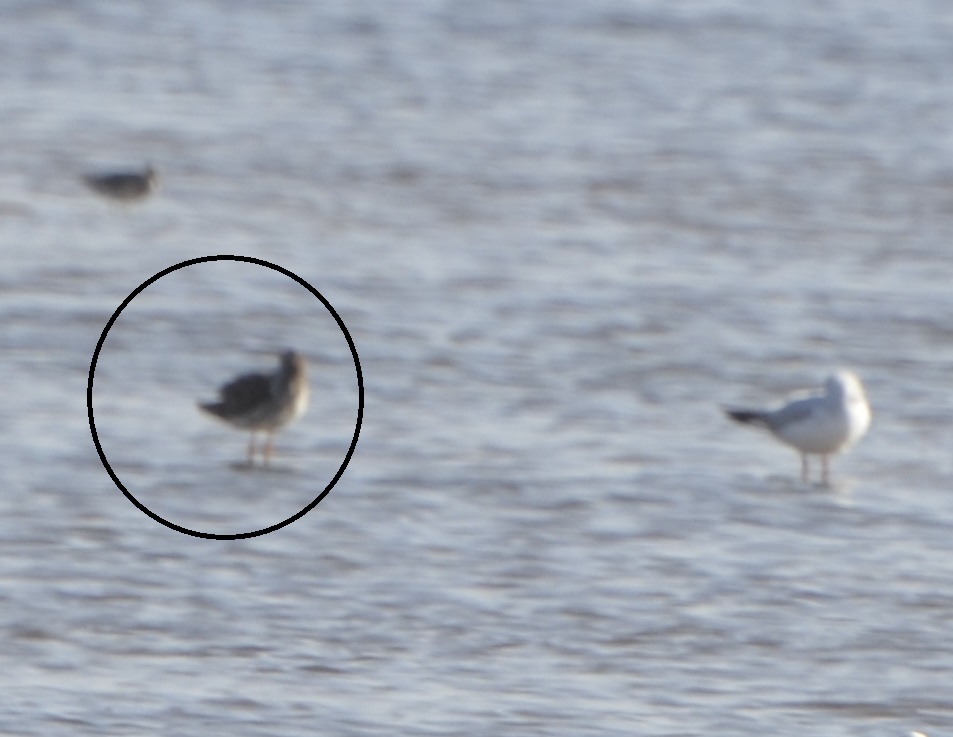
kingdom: Animalia
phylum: Chordata
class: Aves
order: Charadriiformes
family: Scolopacidae
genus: Tringa
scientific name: Tringa totanus
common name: Common redshank
